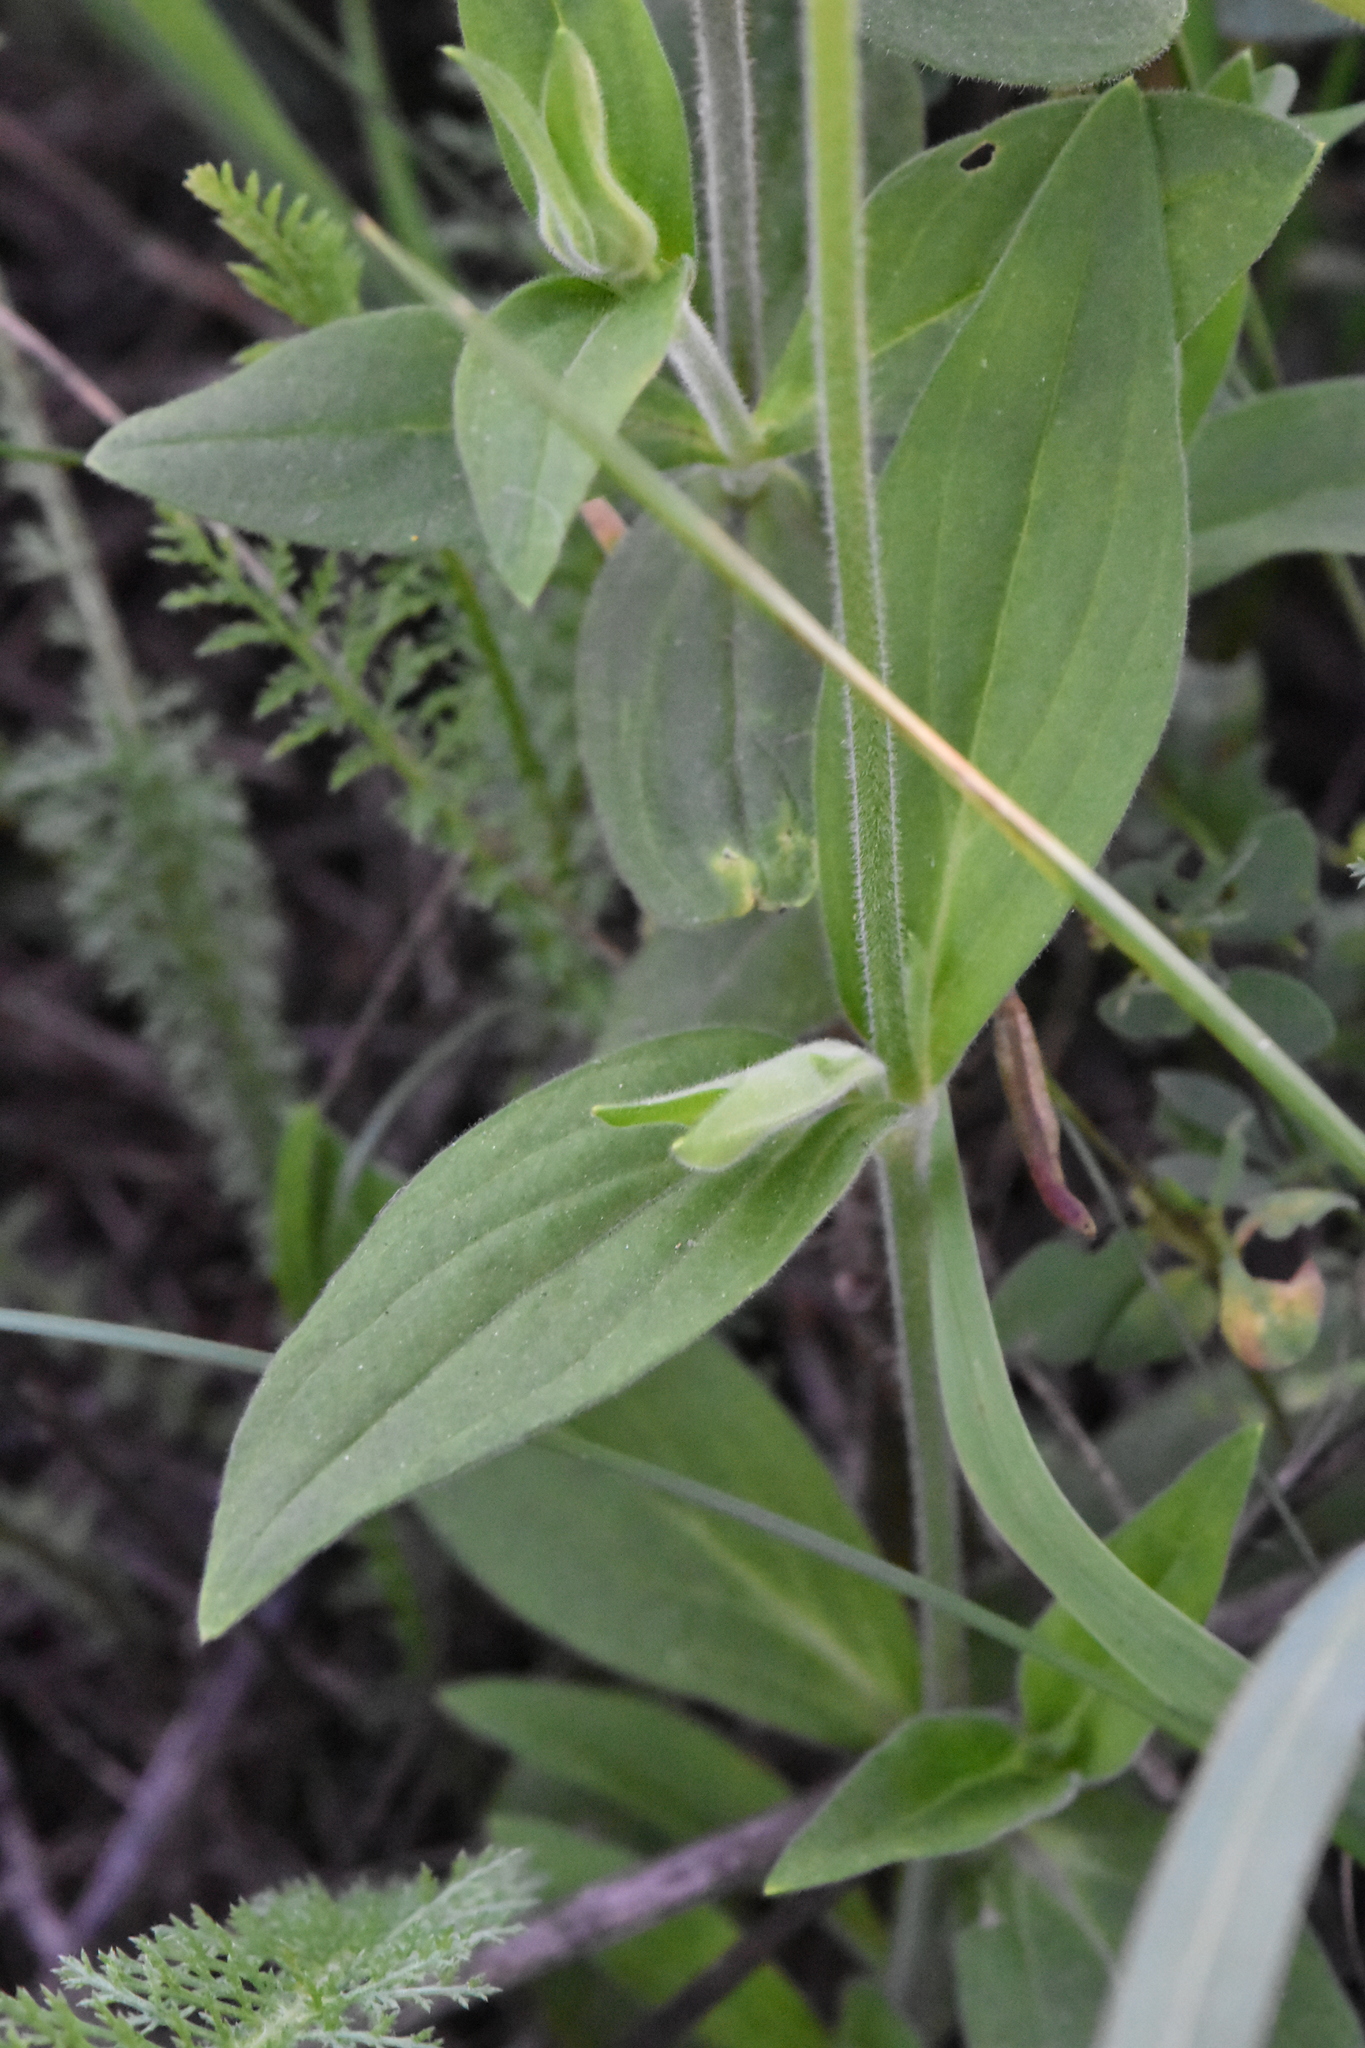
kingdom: Plantae
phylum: Tracheophyta
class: Magnoliopsida
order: Caryophyllales
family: Caryophyllaceae
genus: Silene
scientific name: Silene latifolia
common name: White campion
